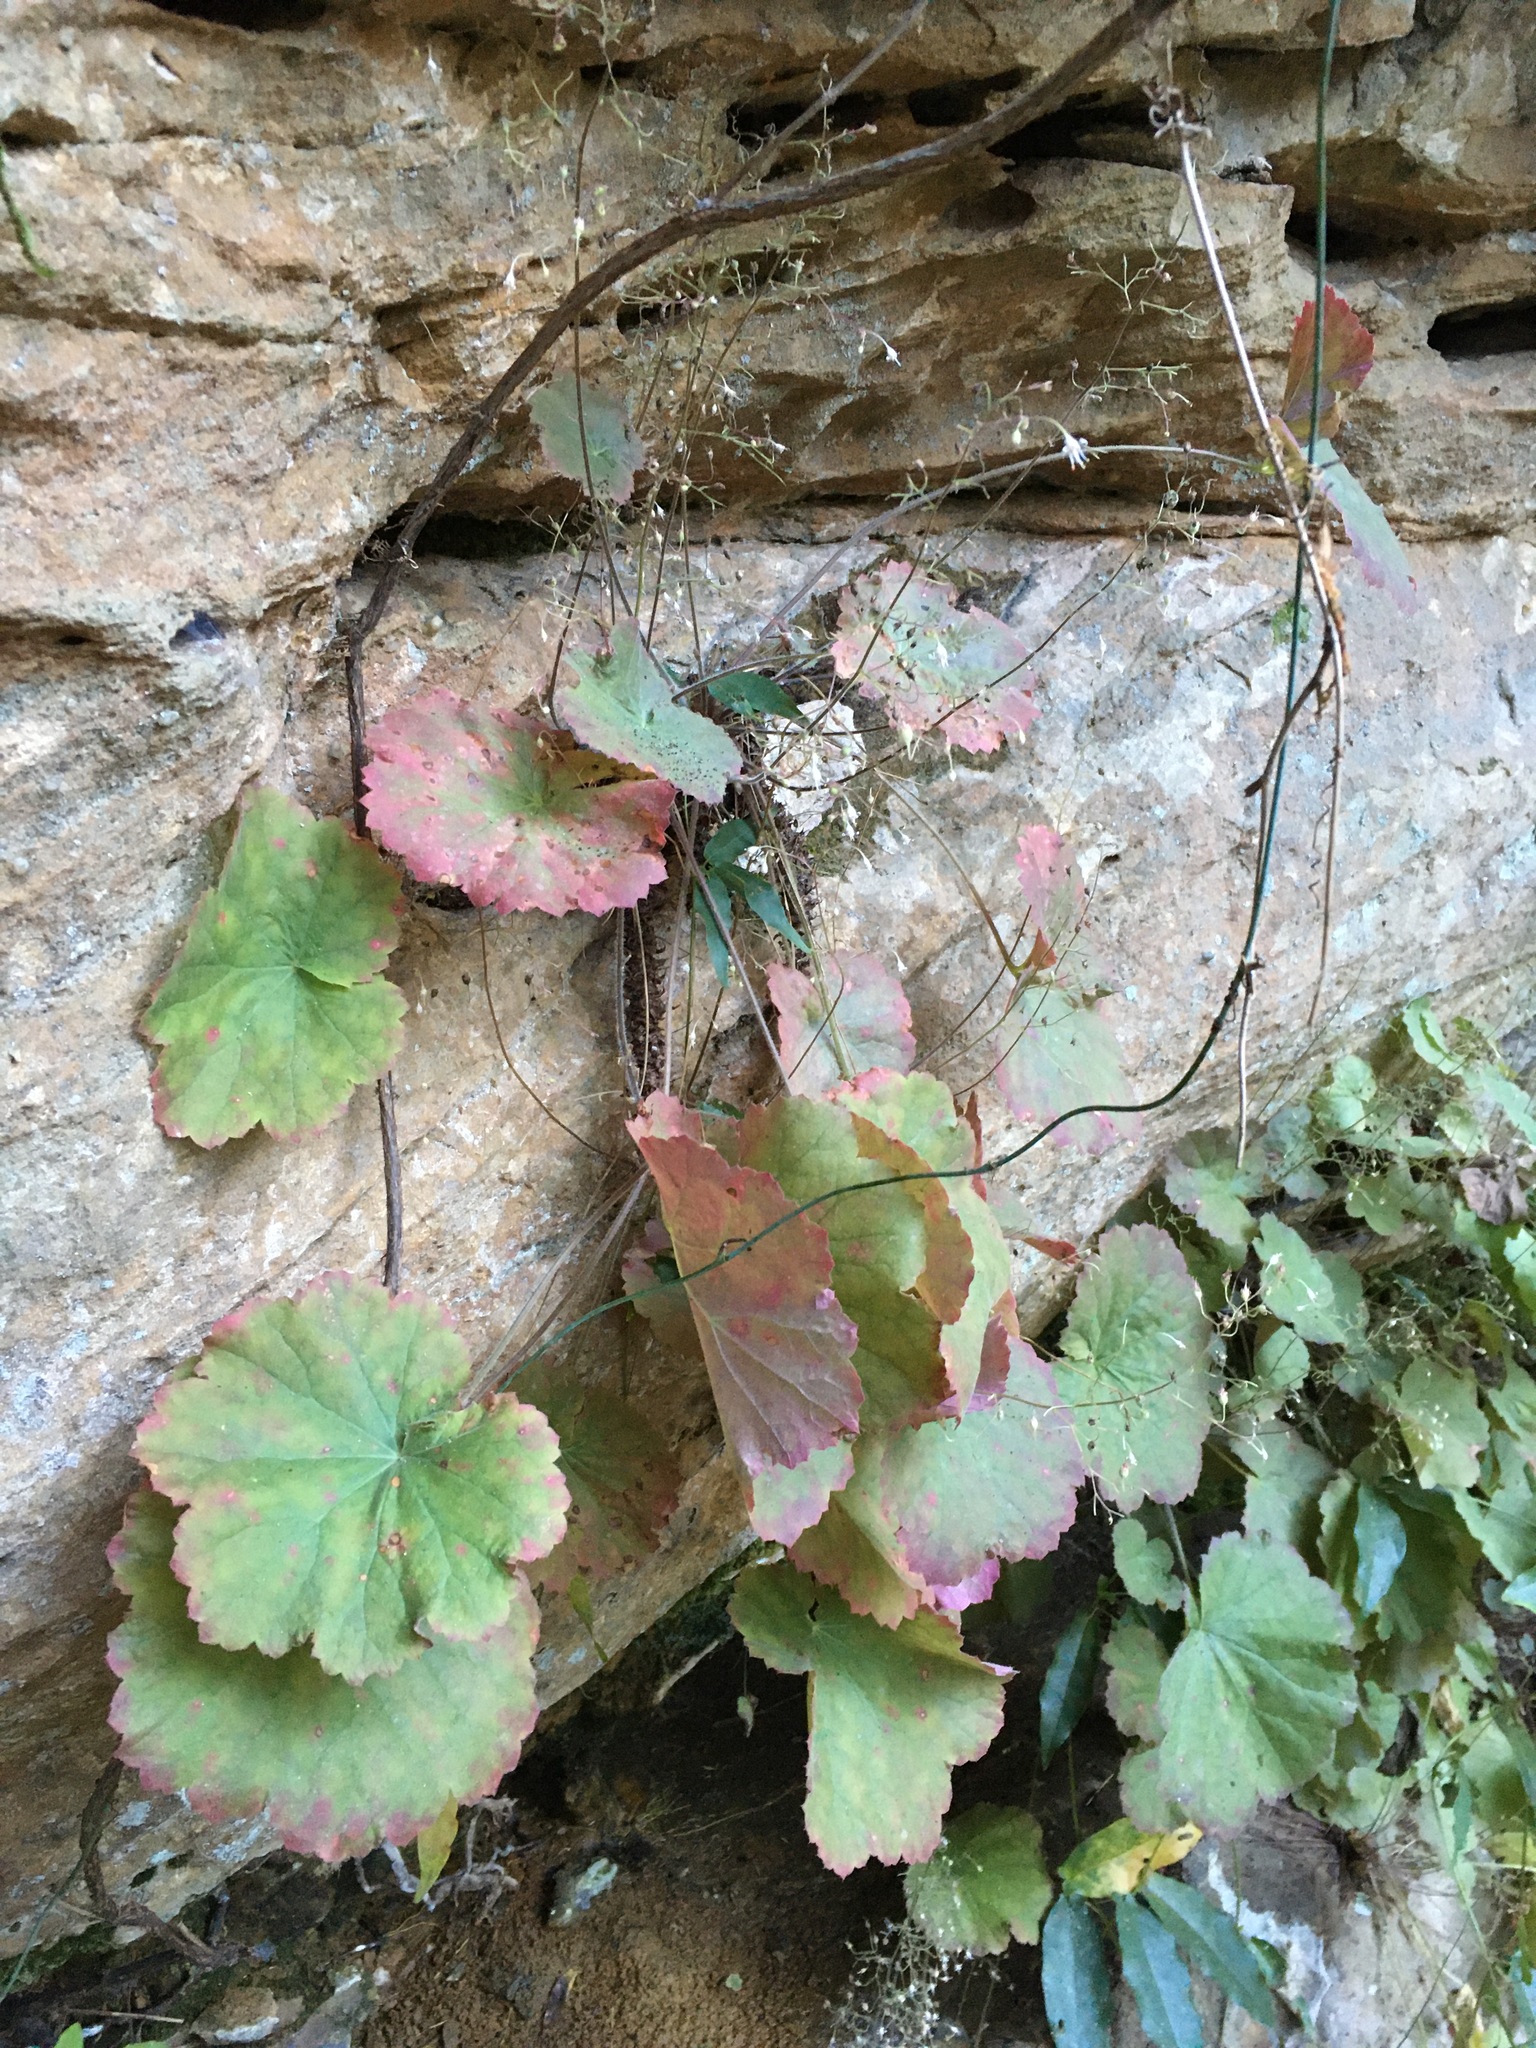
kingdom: Plantae
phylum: Tracheophyta
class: Magnoliopsida
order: Saxifragales
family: Saxifragaceae
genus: Heuchera
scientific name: Heuchera parviflora
